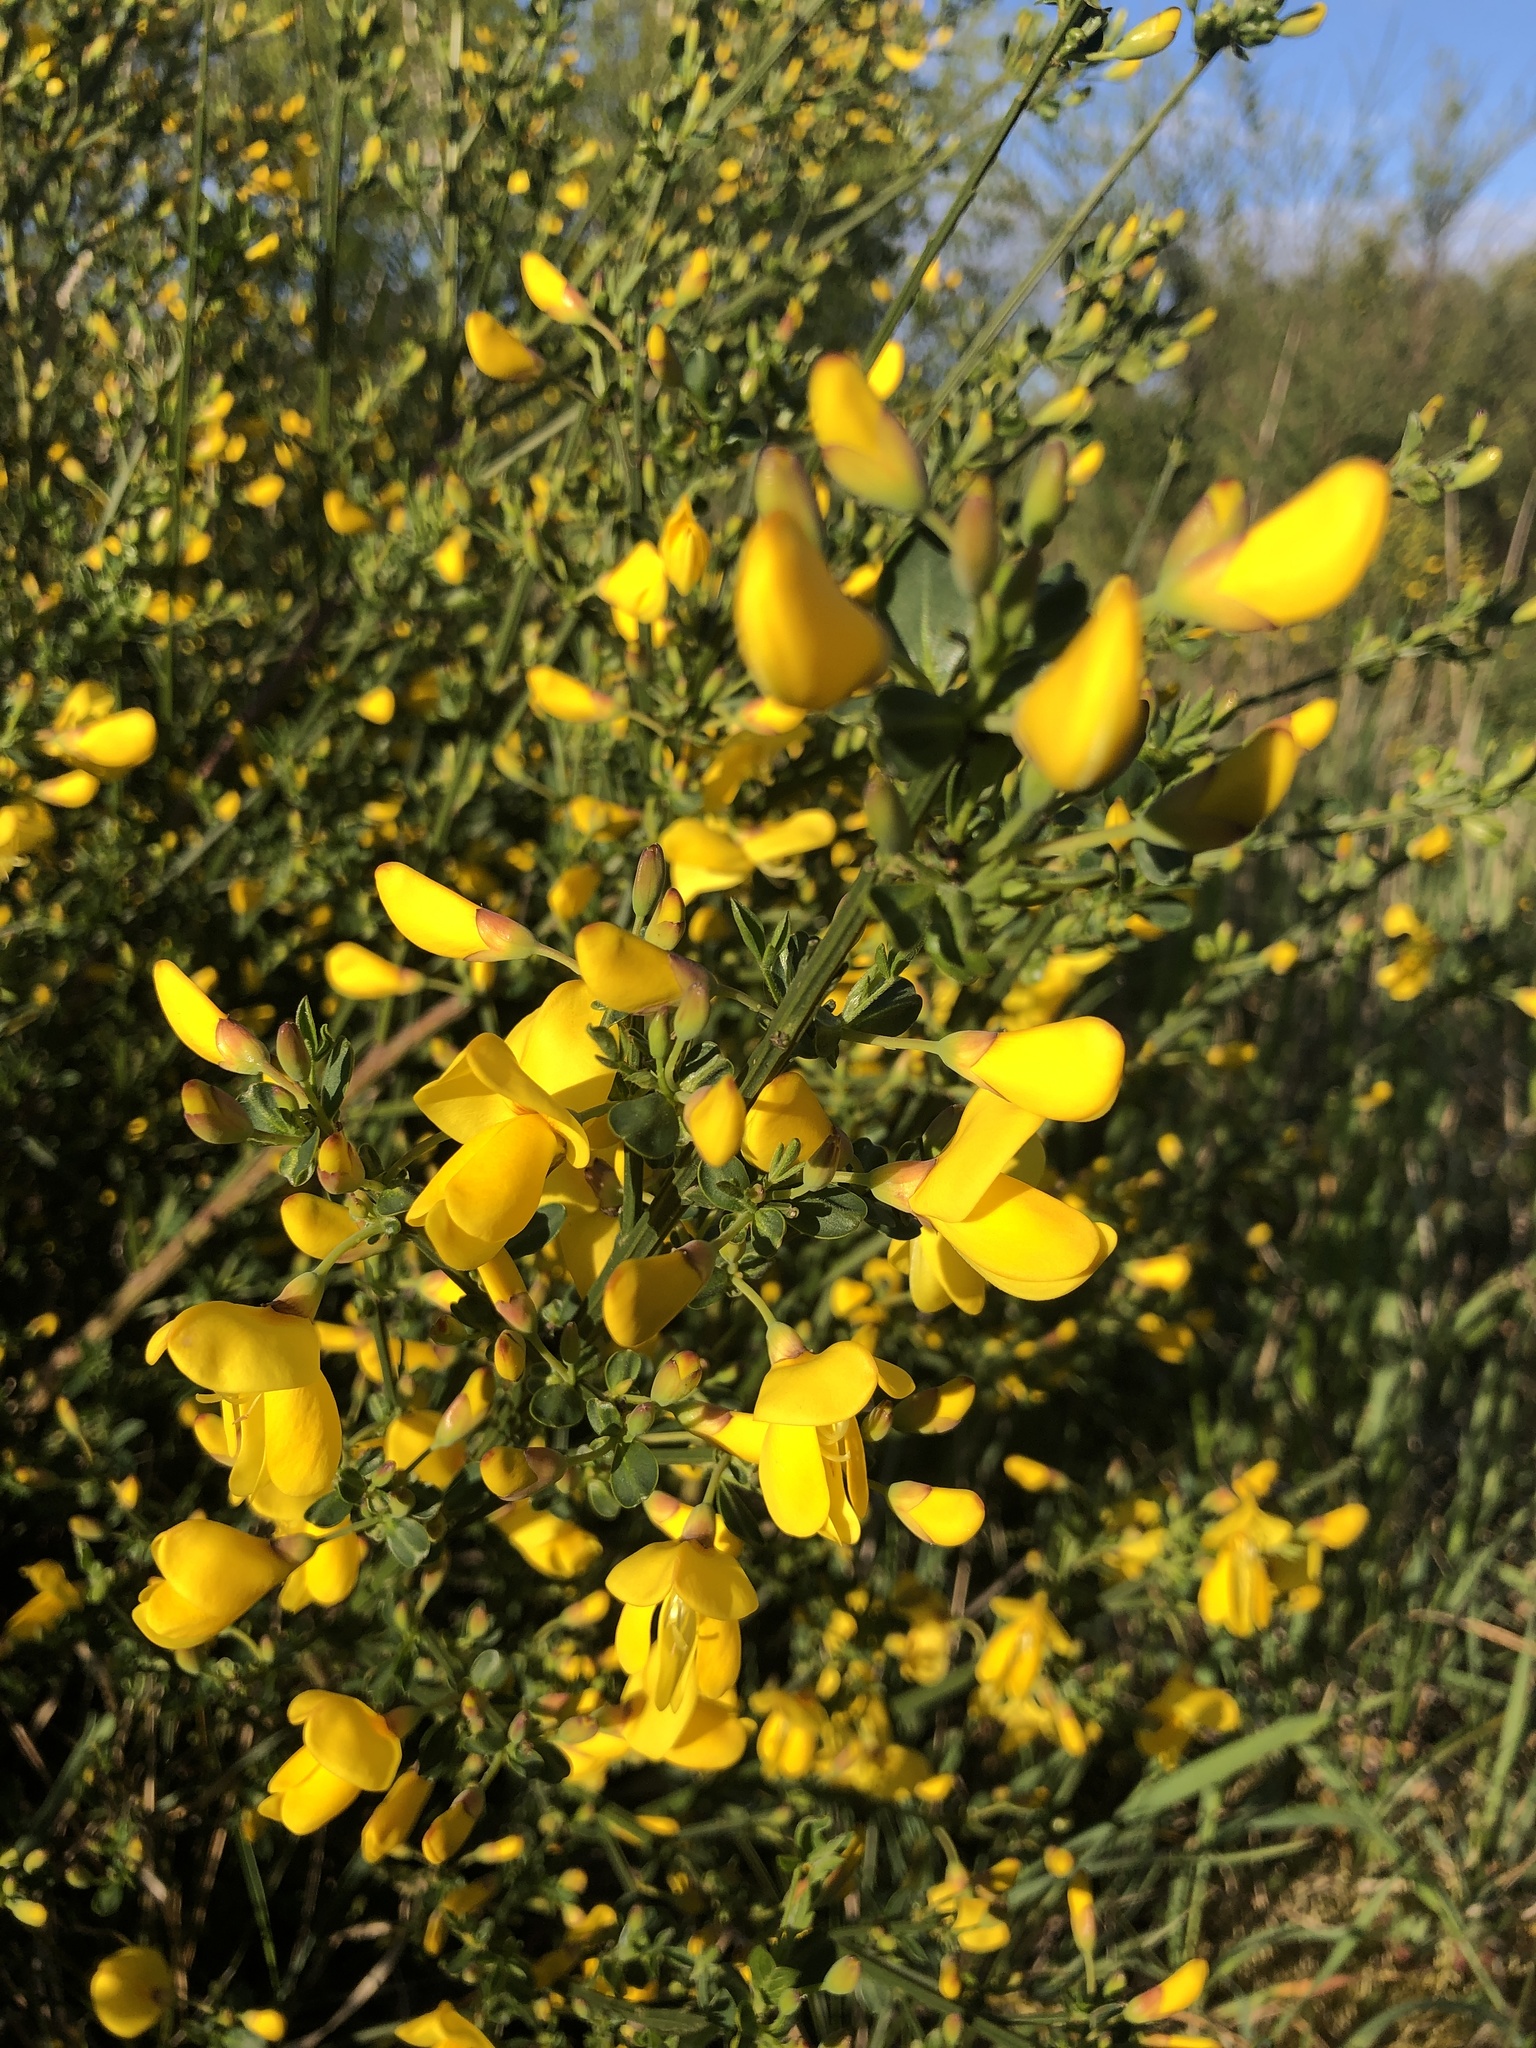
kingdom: Plantae
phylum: Tracheophyta
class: Magnoliopsida
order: Fabales
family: Fabaceae
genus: Cytisus
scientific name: Cytisus scoparius
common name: Scotch broom
